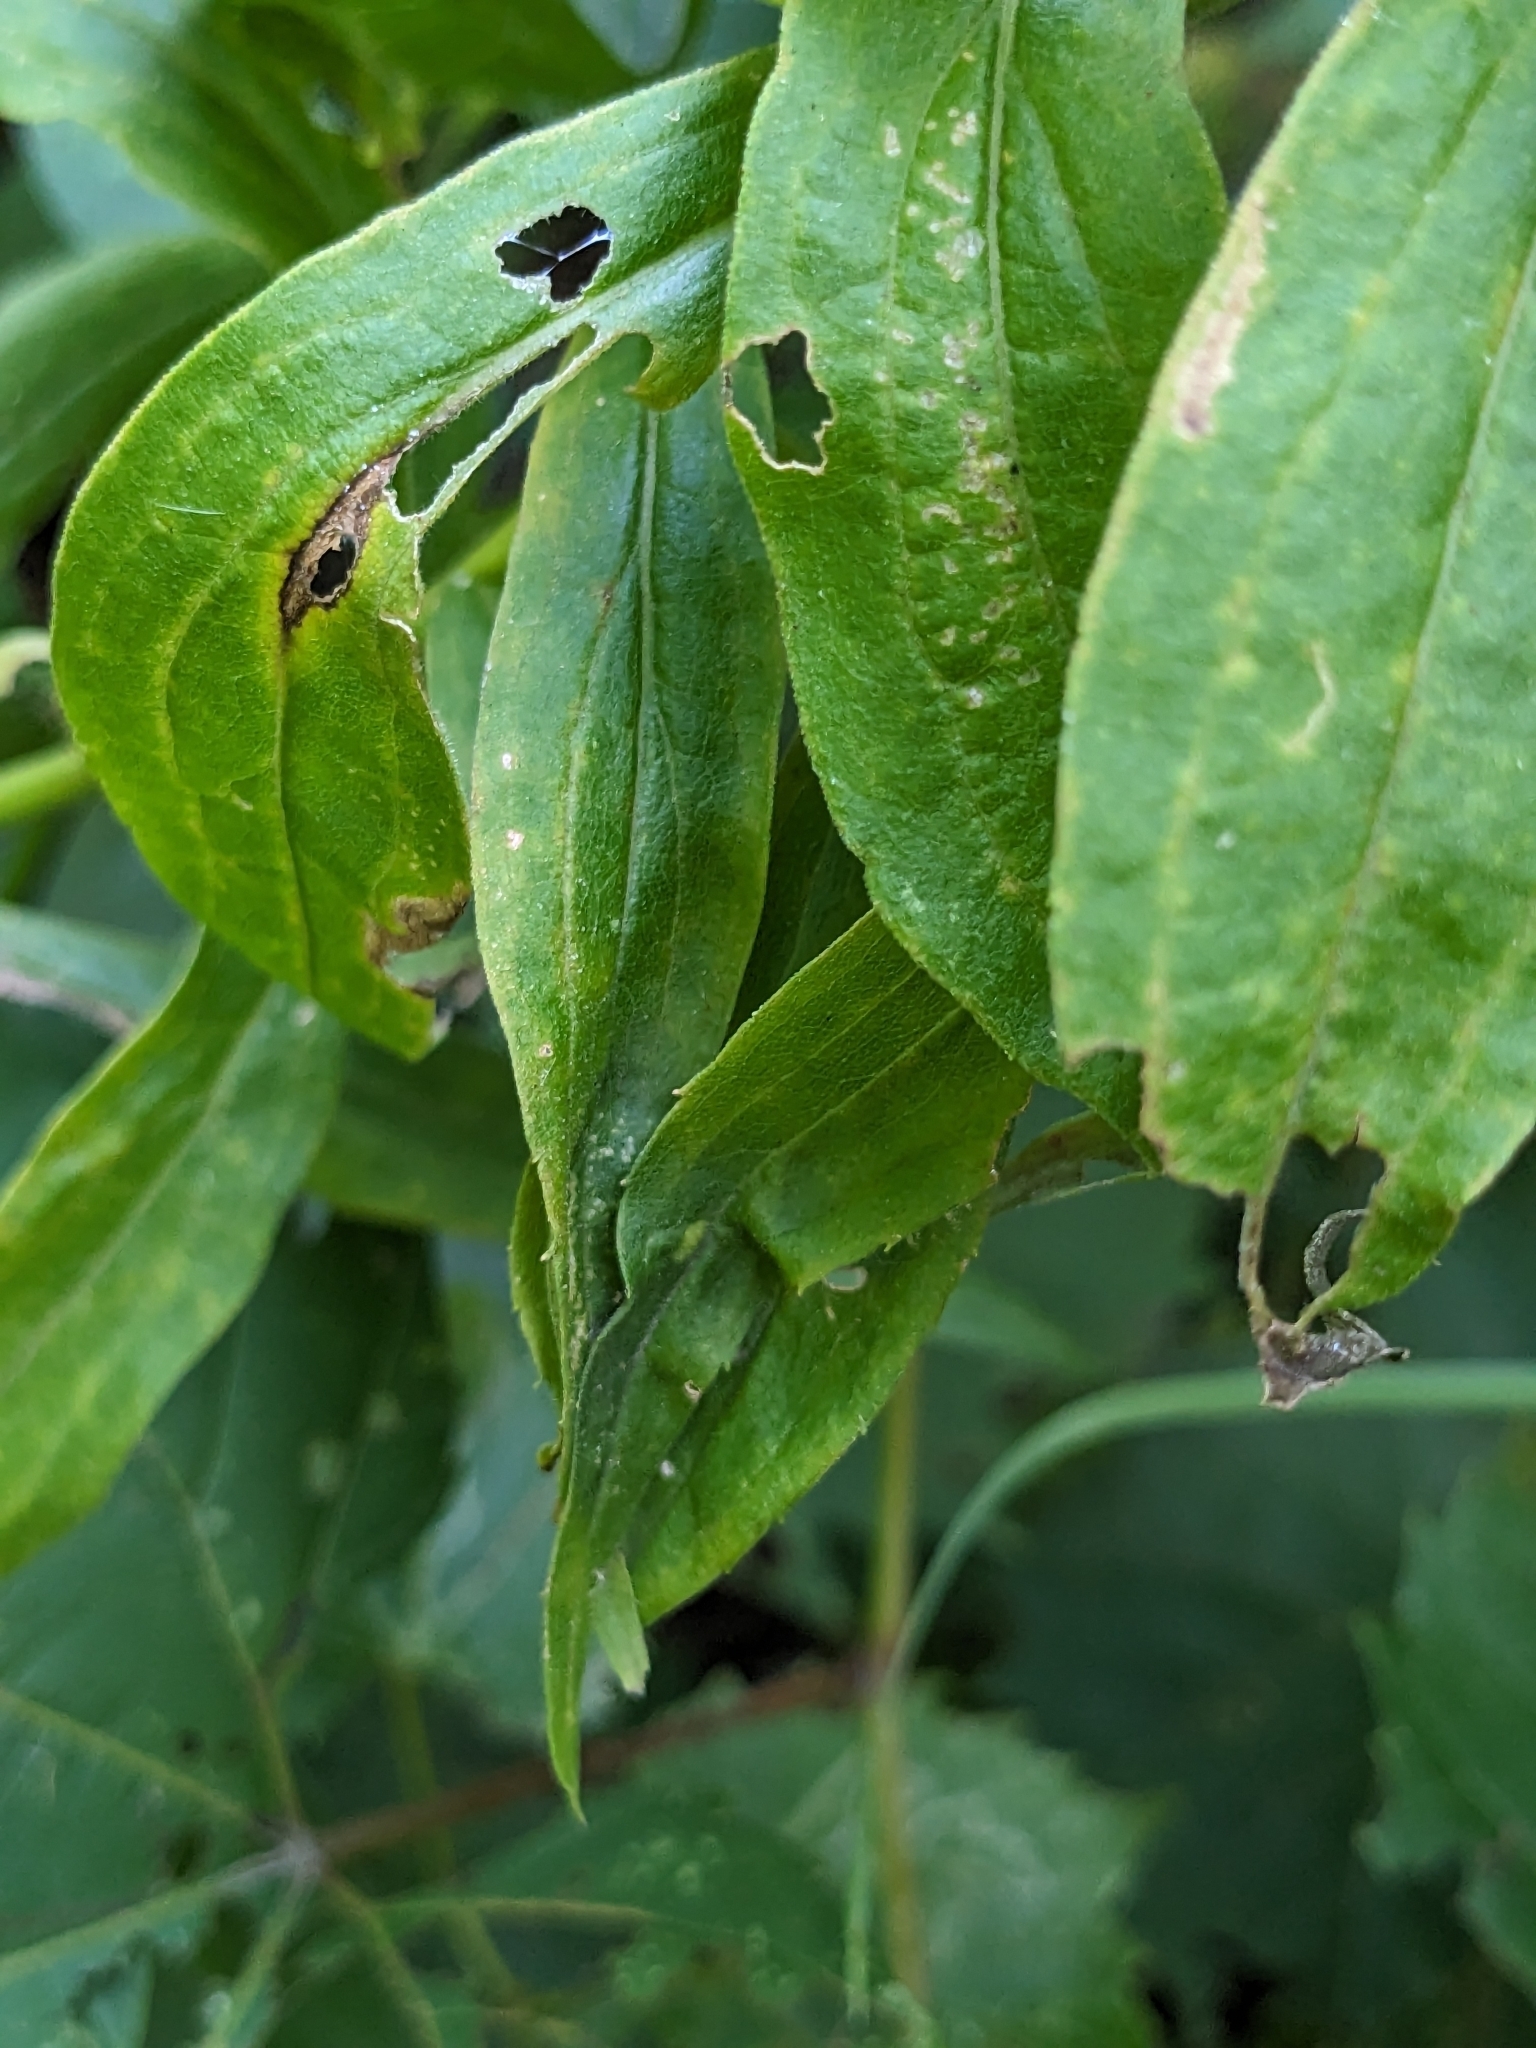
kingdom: Animalia
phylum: Arthropoda
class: Insecta
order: Diptera
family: Cecidomyiidae
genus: Asphondylia
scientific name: Asphondylia solidaginis
